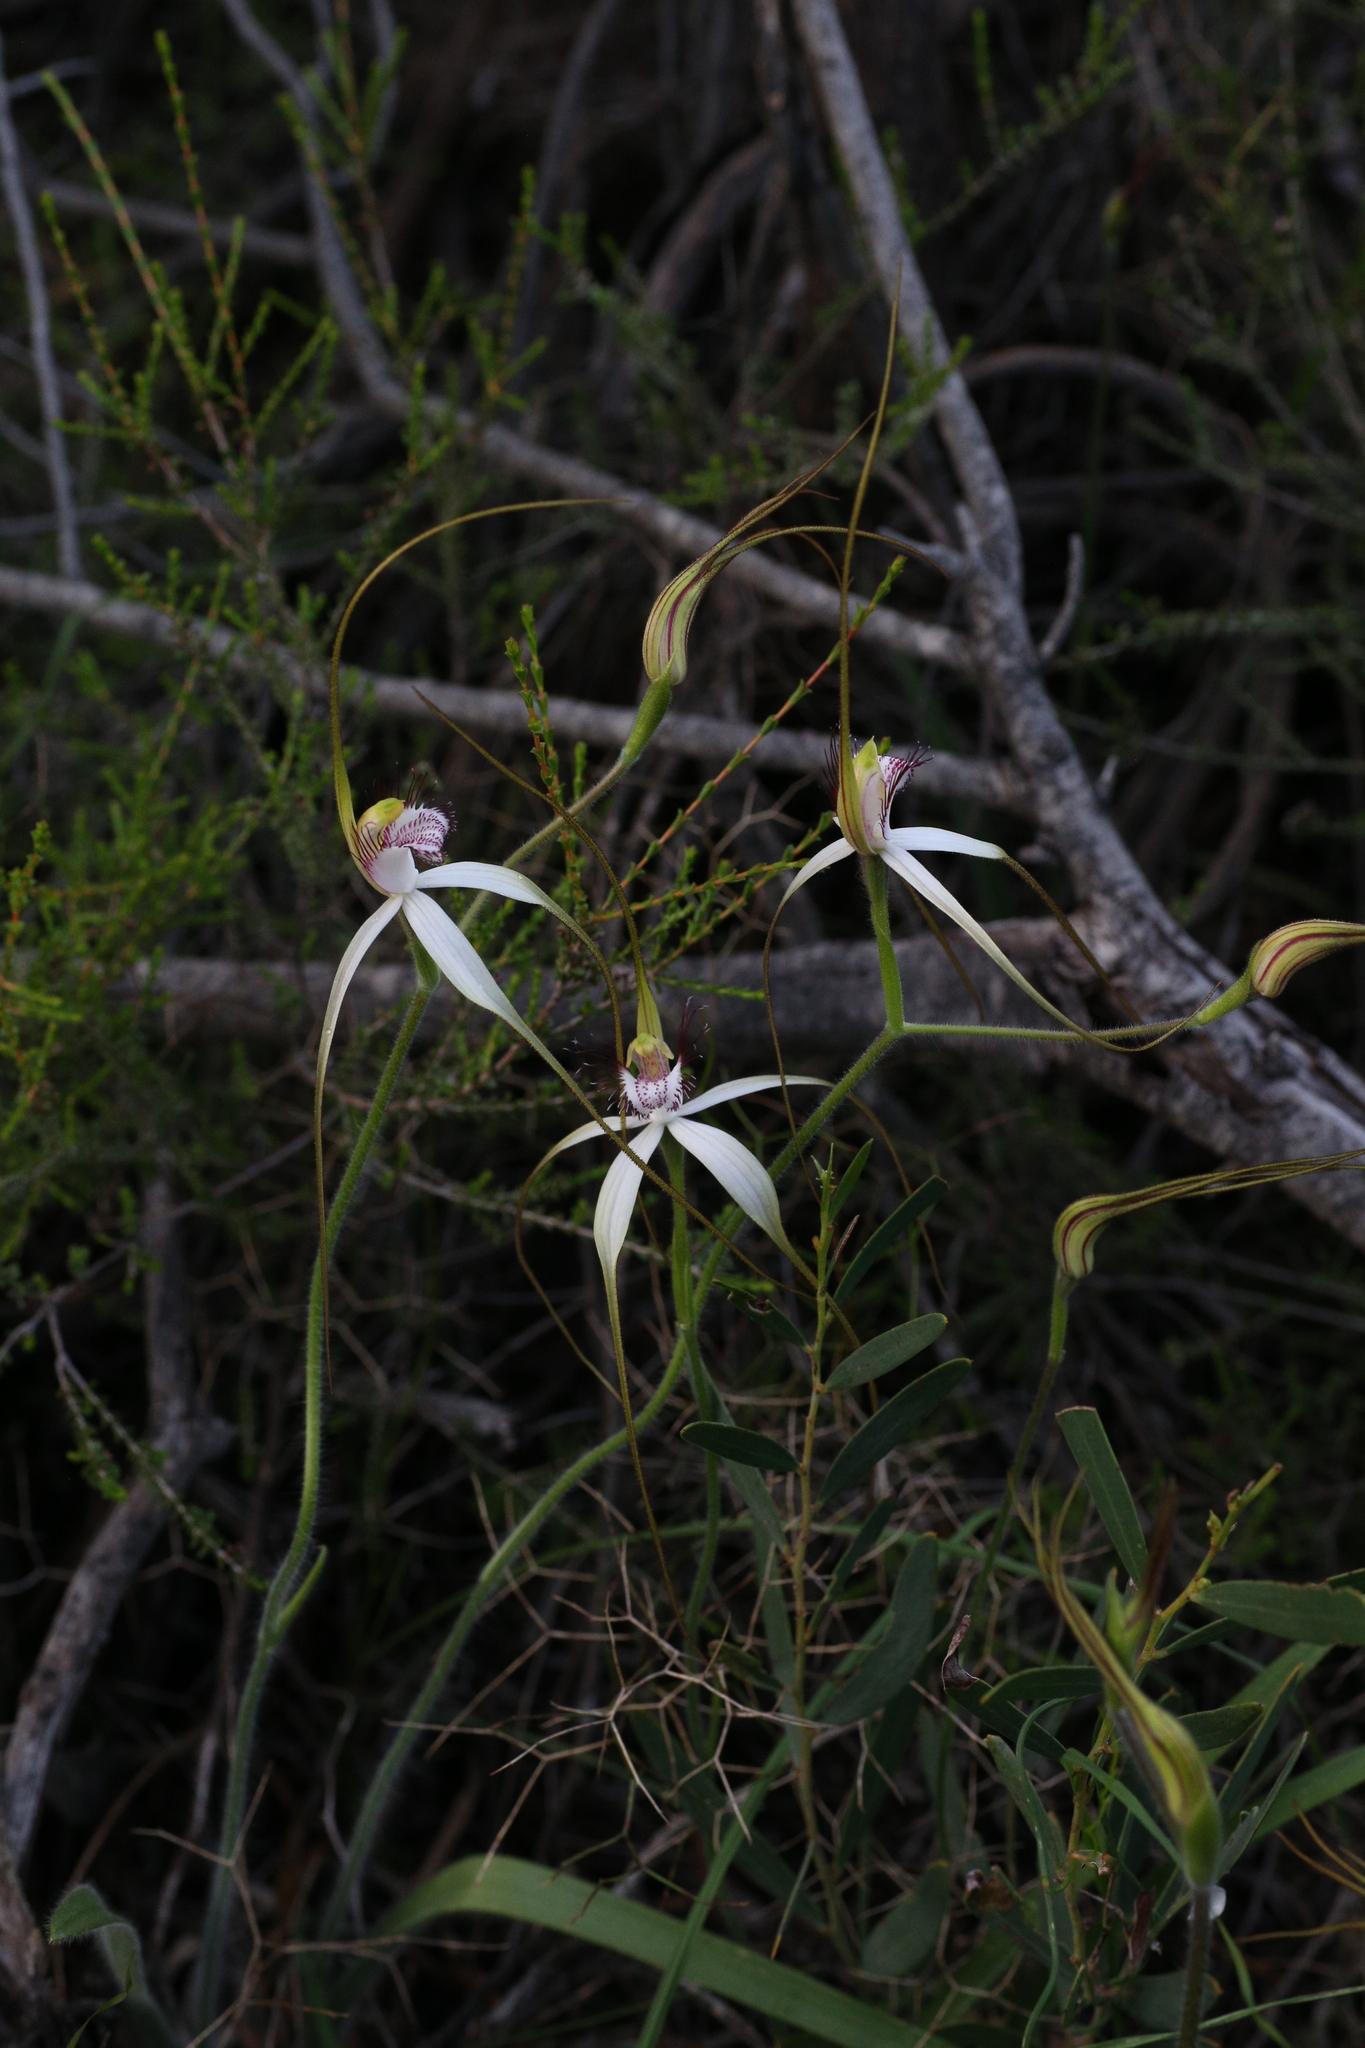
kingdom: Plantae
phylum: Tracheophyta
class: Liliopsida
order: Asparagales
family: Orchidaceae
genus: Caladenia
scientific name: Caladenia longicauda
